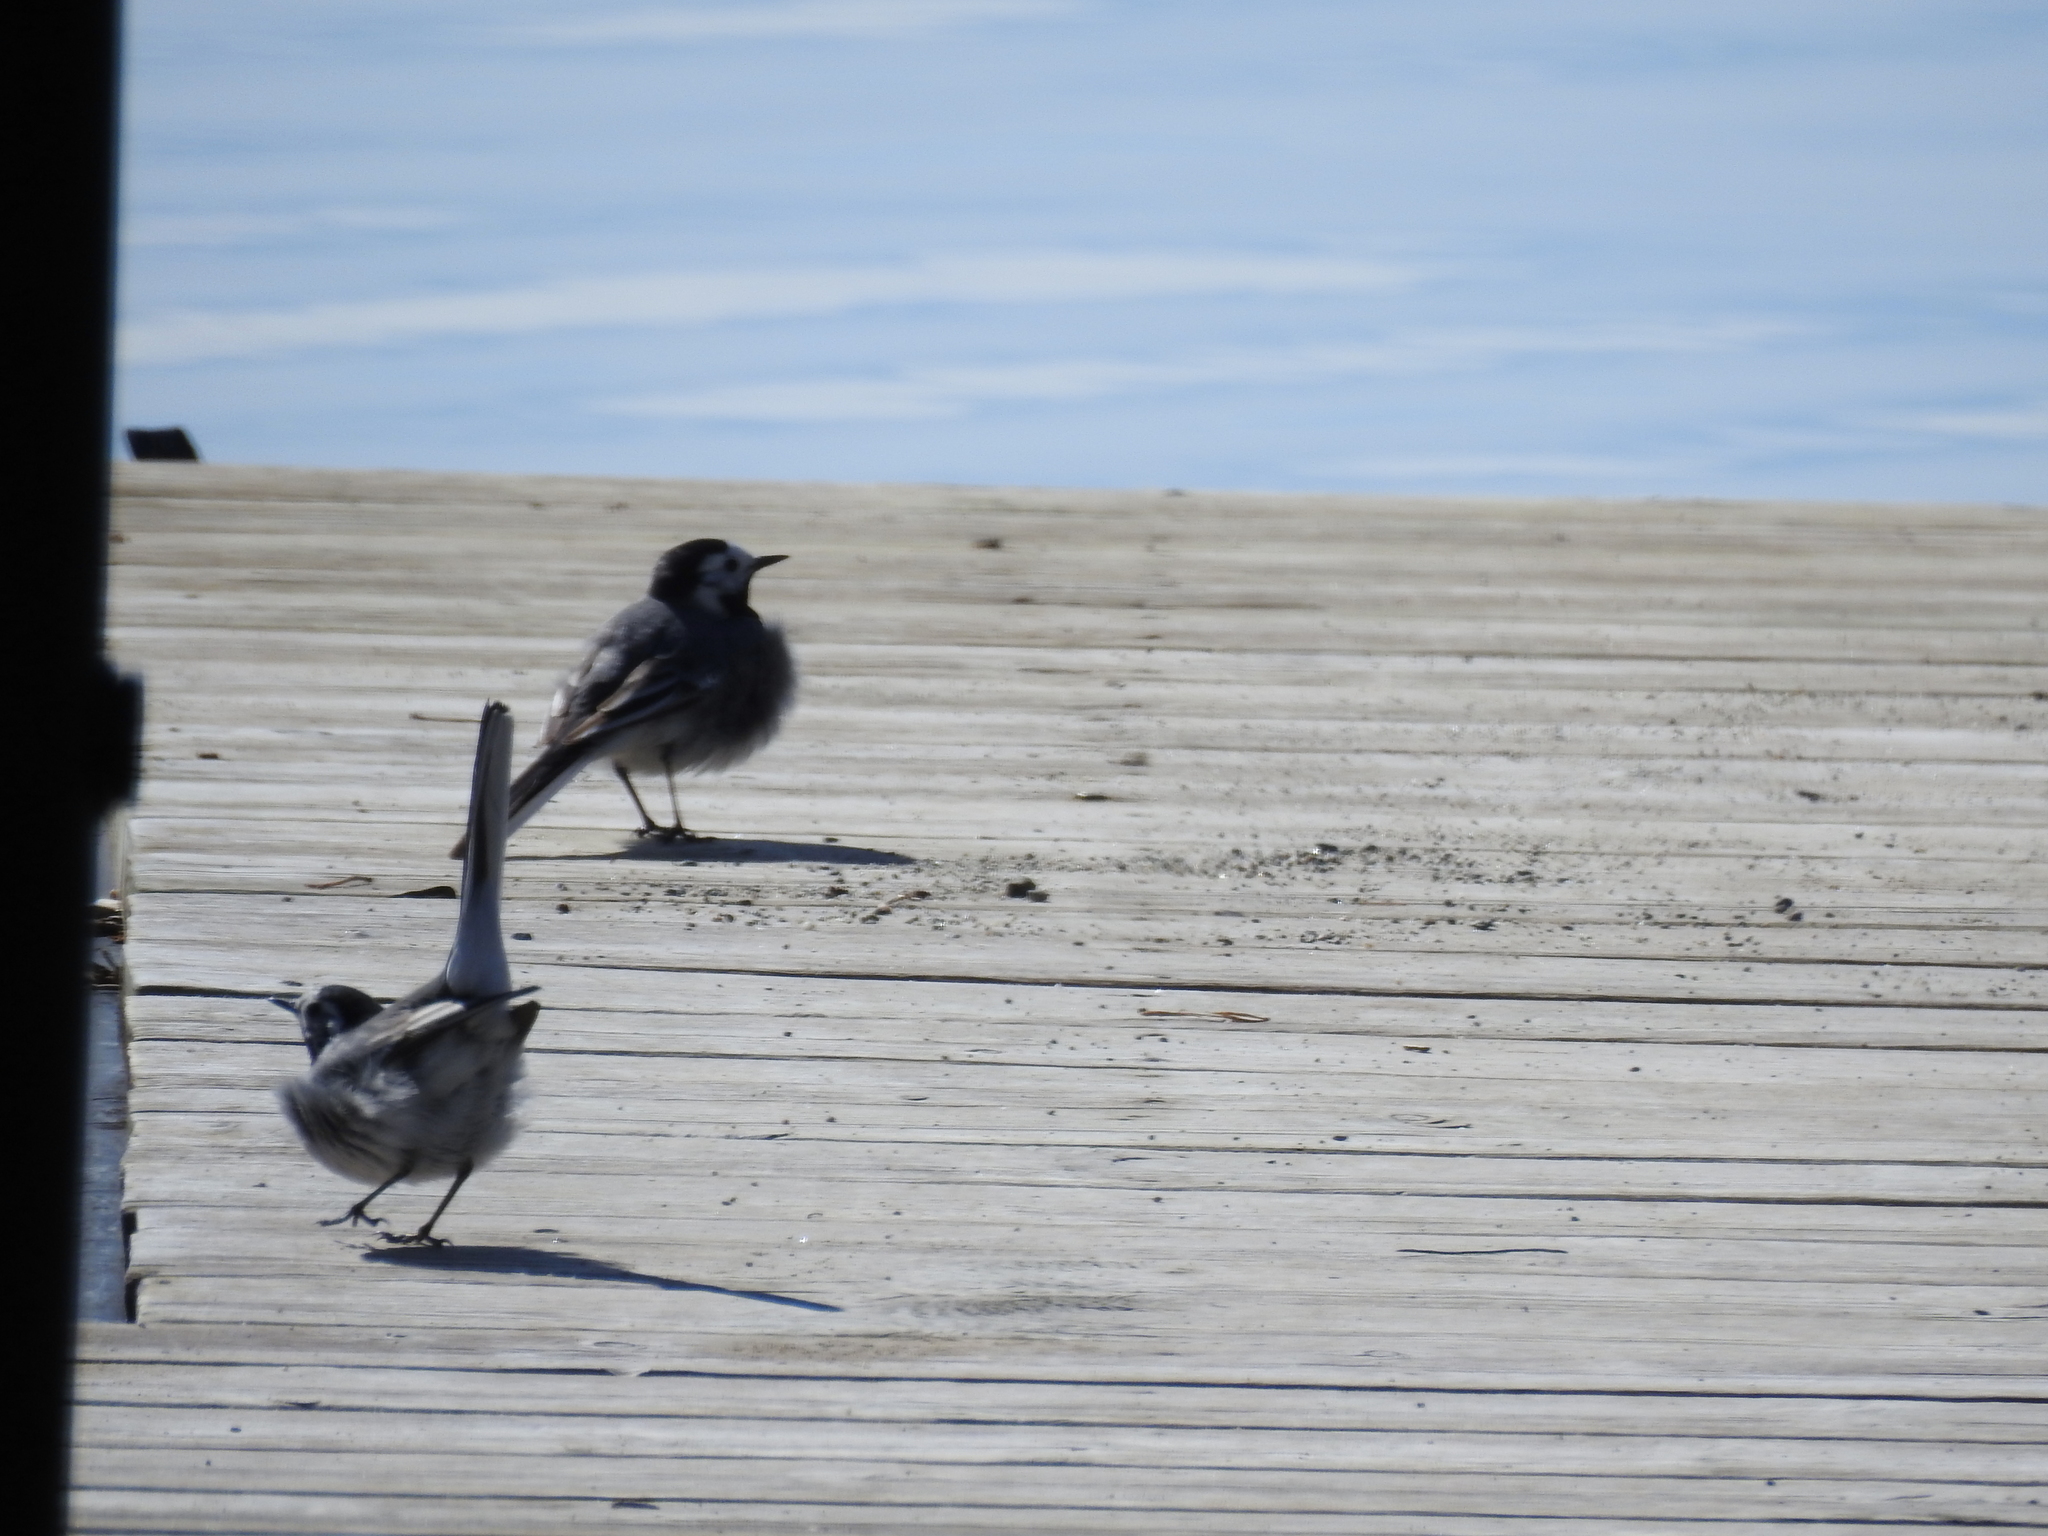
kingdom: Animalia
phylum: Chordata
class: Aves
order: Passeriformes
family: Motacillidae
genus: Motacilla
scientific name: Motacilla alba
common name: White wagtail
